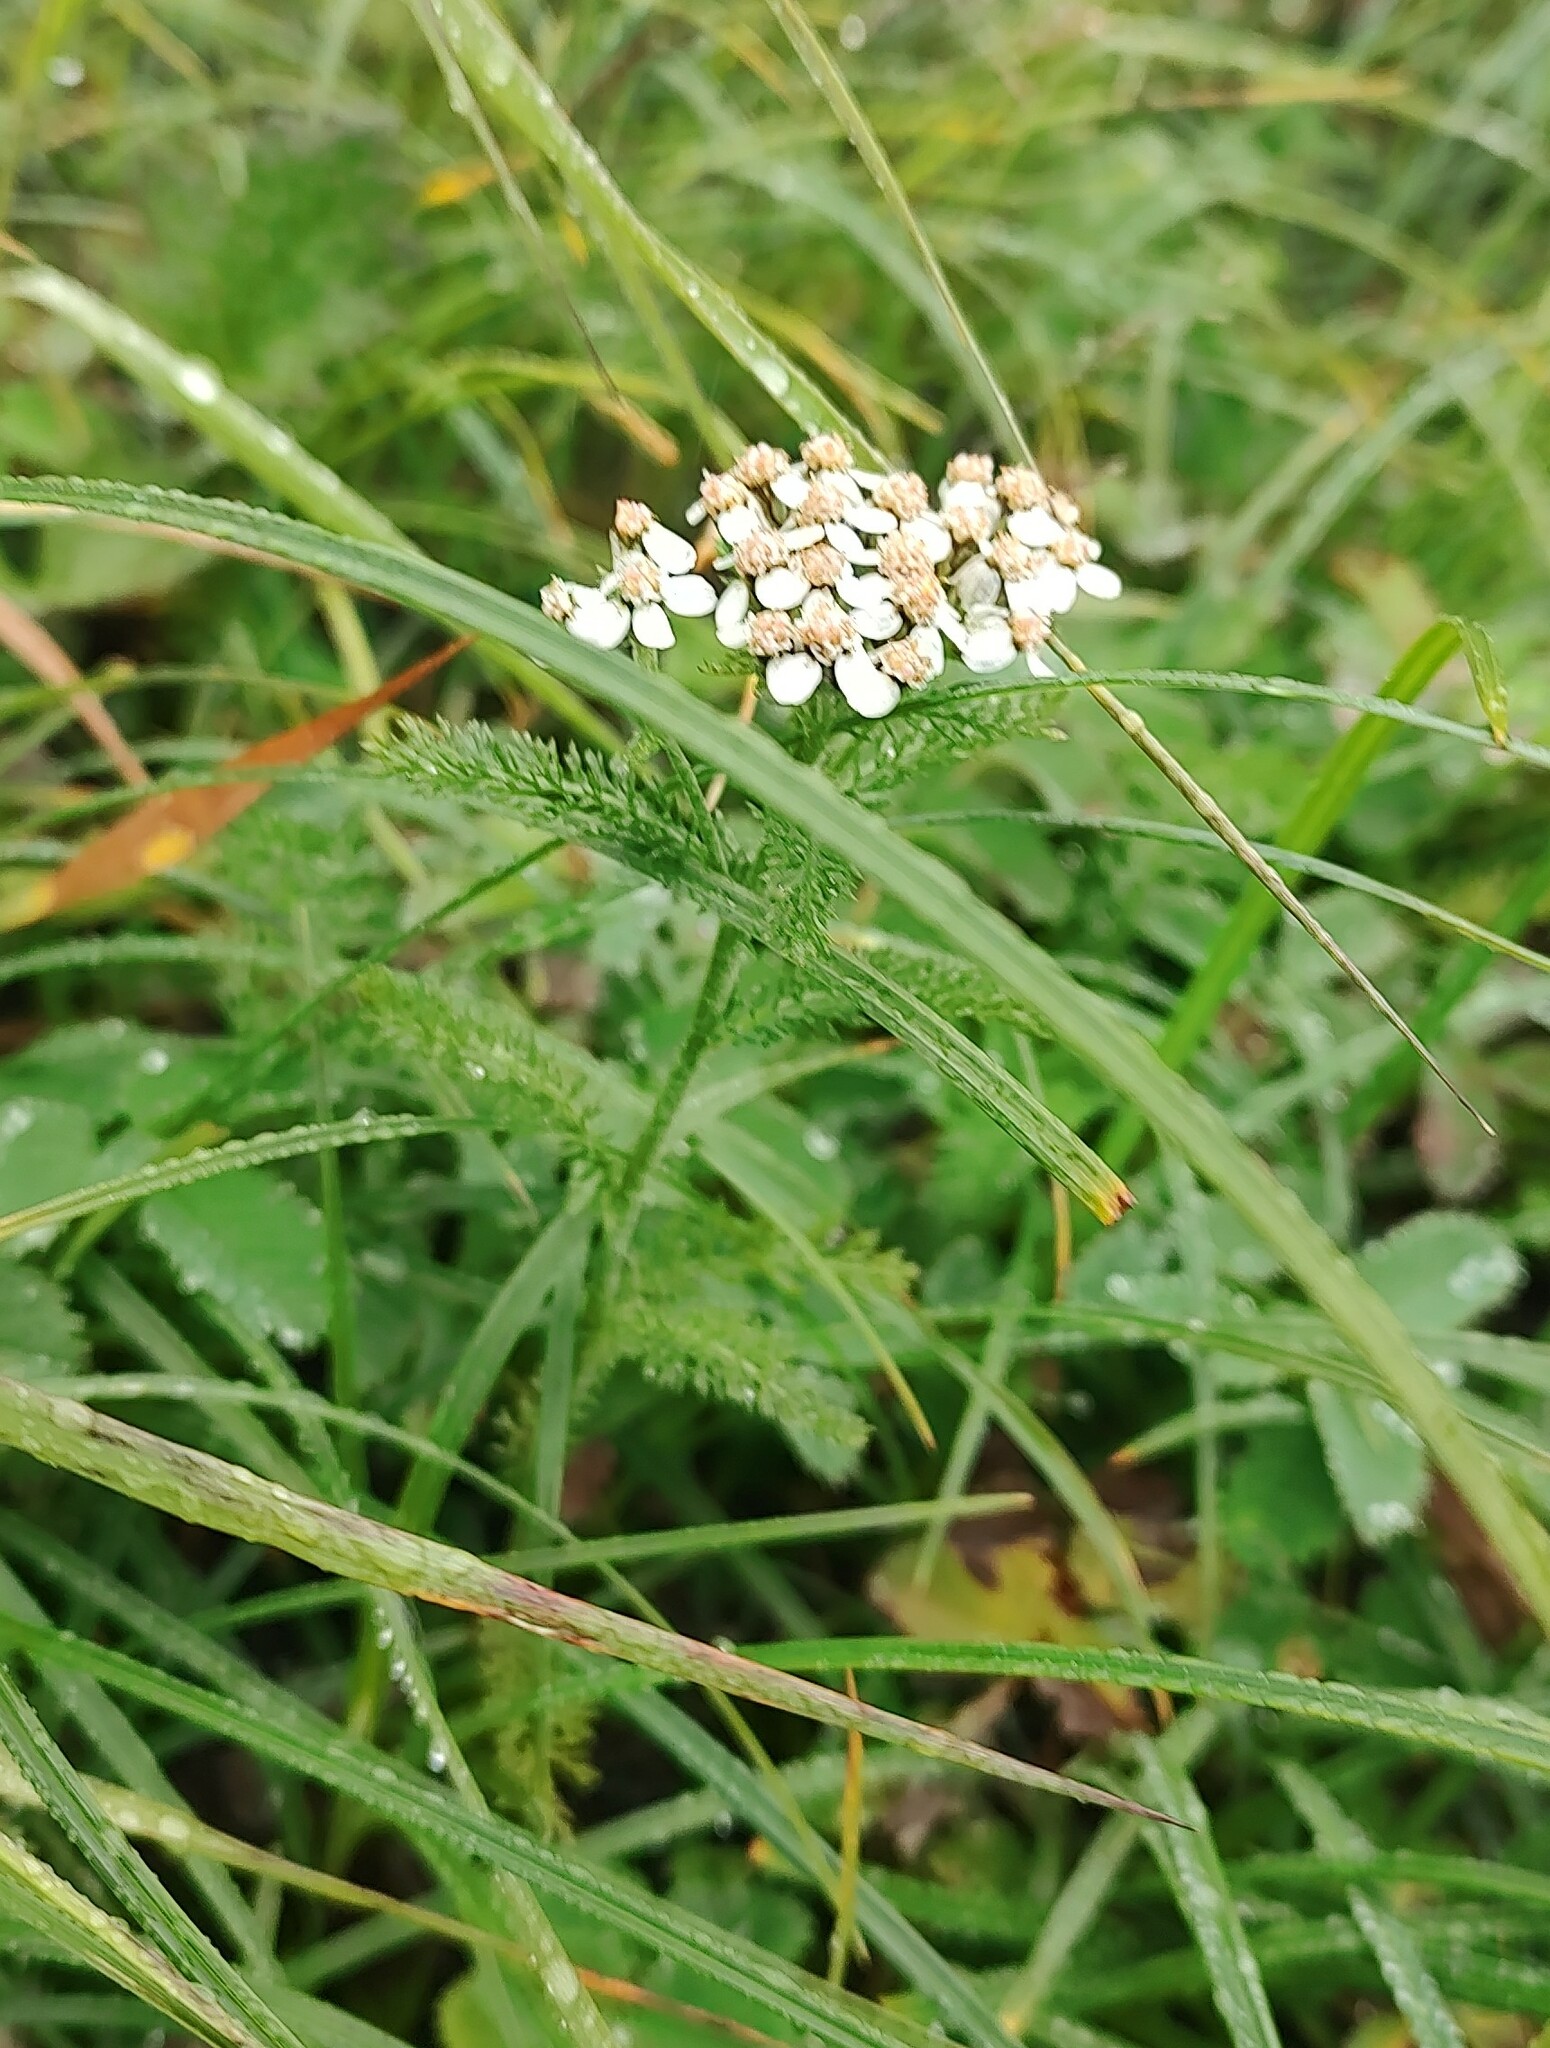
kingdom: Plantae
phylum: Tracheophyta
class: Magnoliopsida
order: Asterales
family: Asteraceae
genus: Achillea
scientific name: Achillea millefolium
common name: Yarrow
